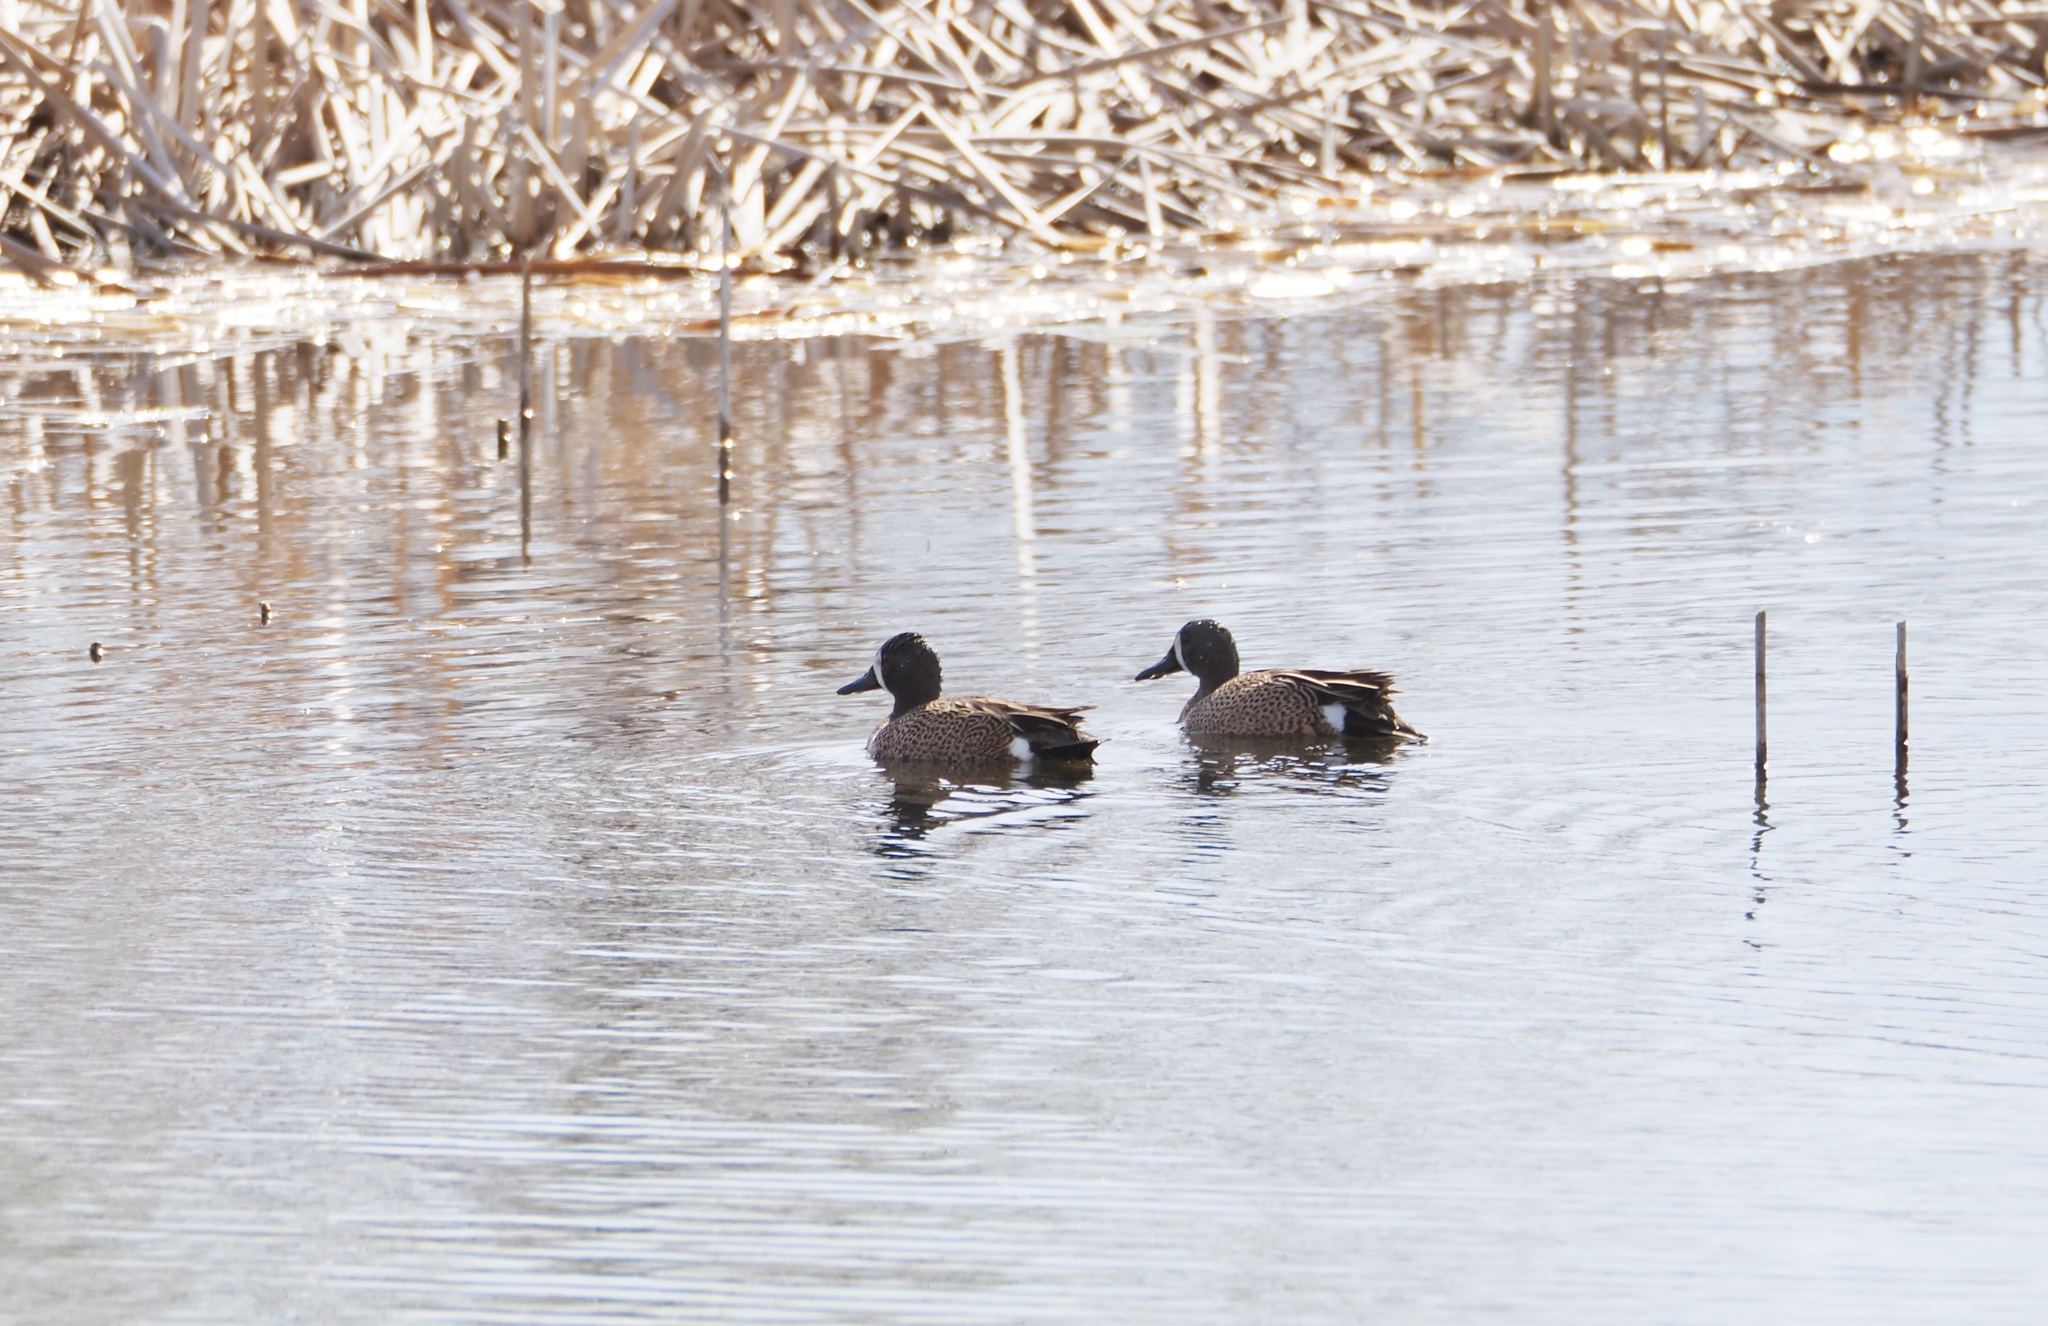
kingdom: Animalia
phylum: Chordata
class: Aves
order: Anseriformes
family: Anatidae
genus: Spatula
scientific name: Spatula discors
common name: Blue-winged teal
